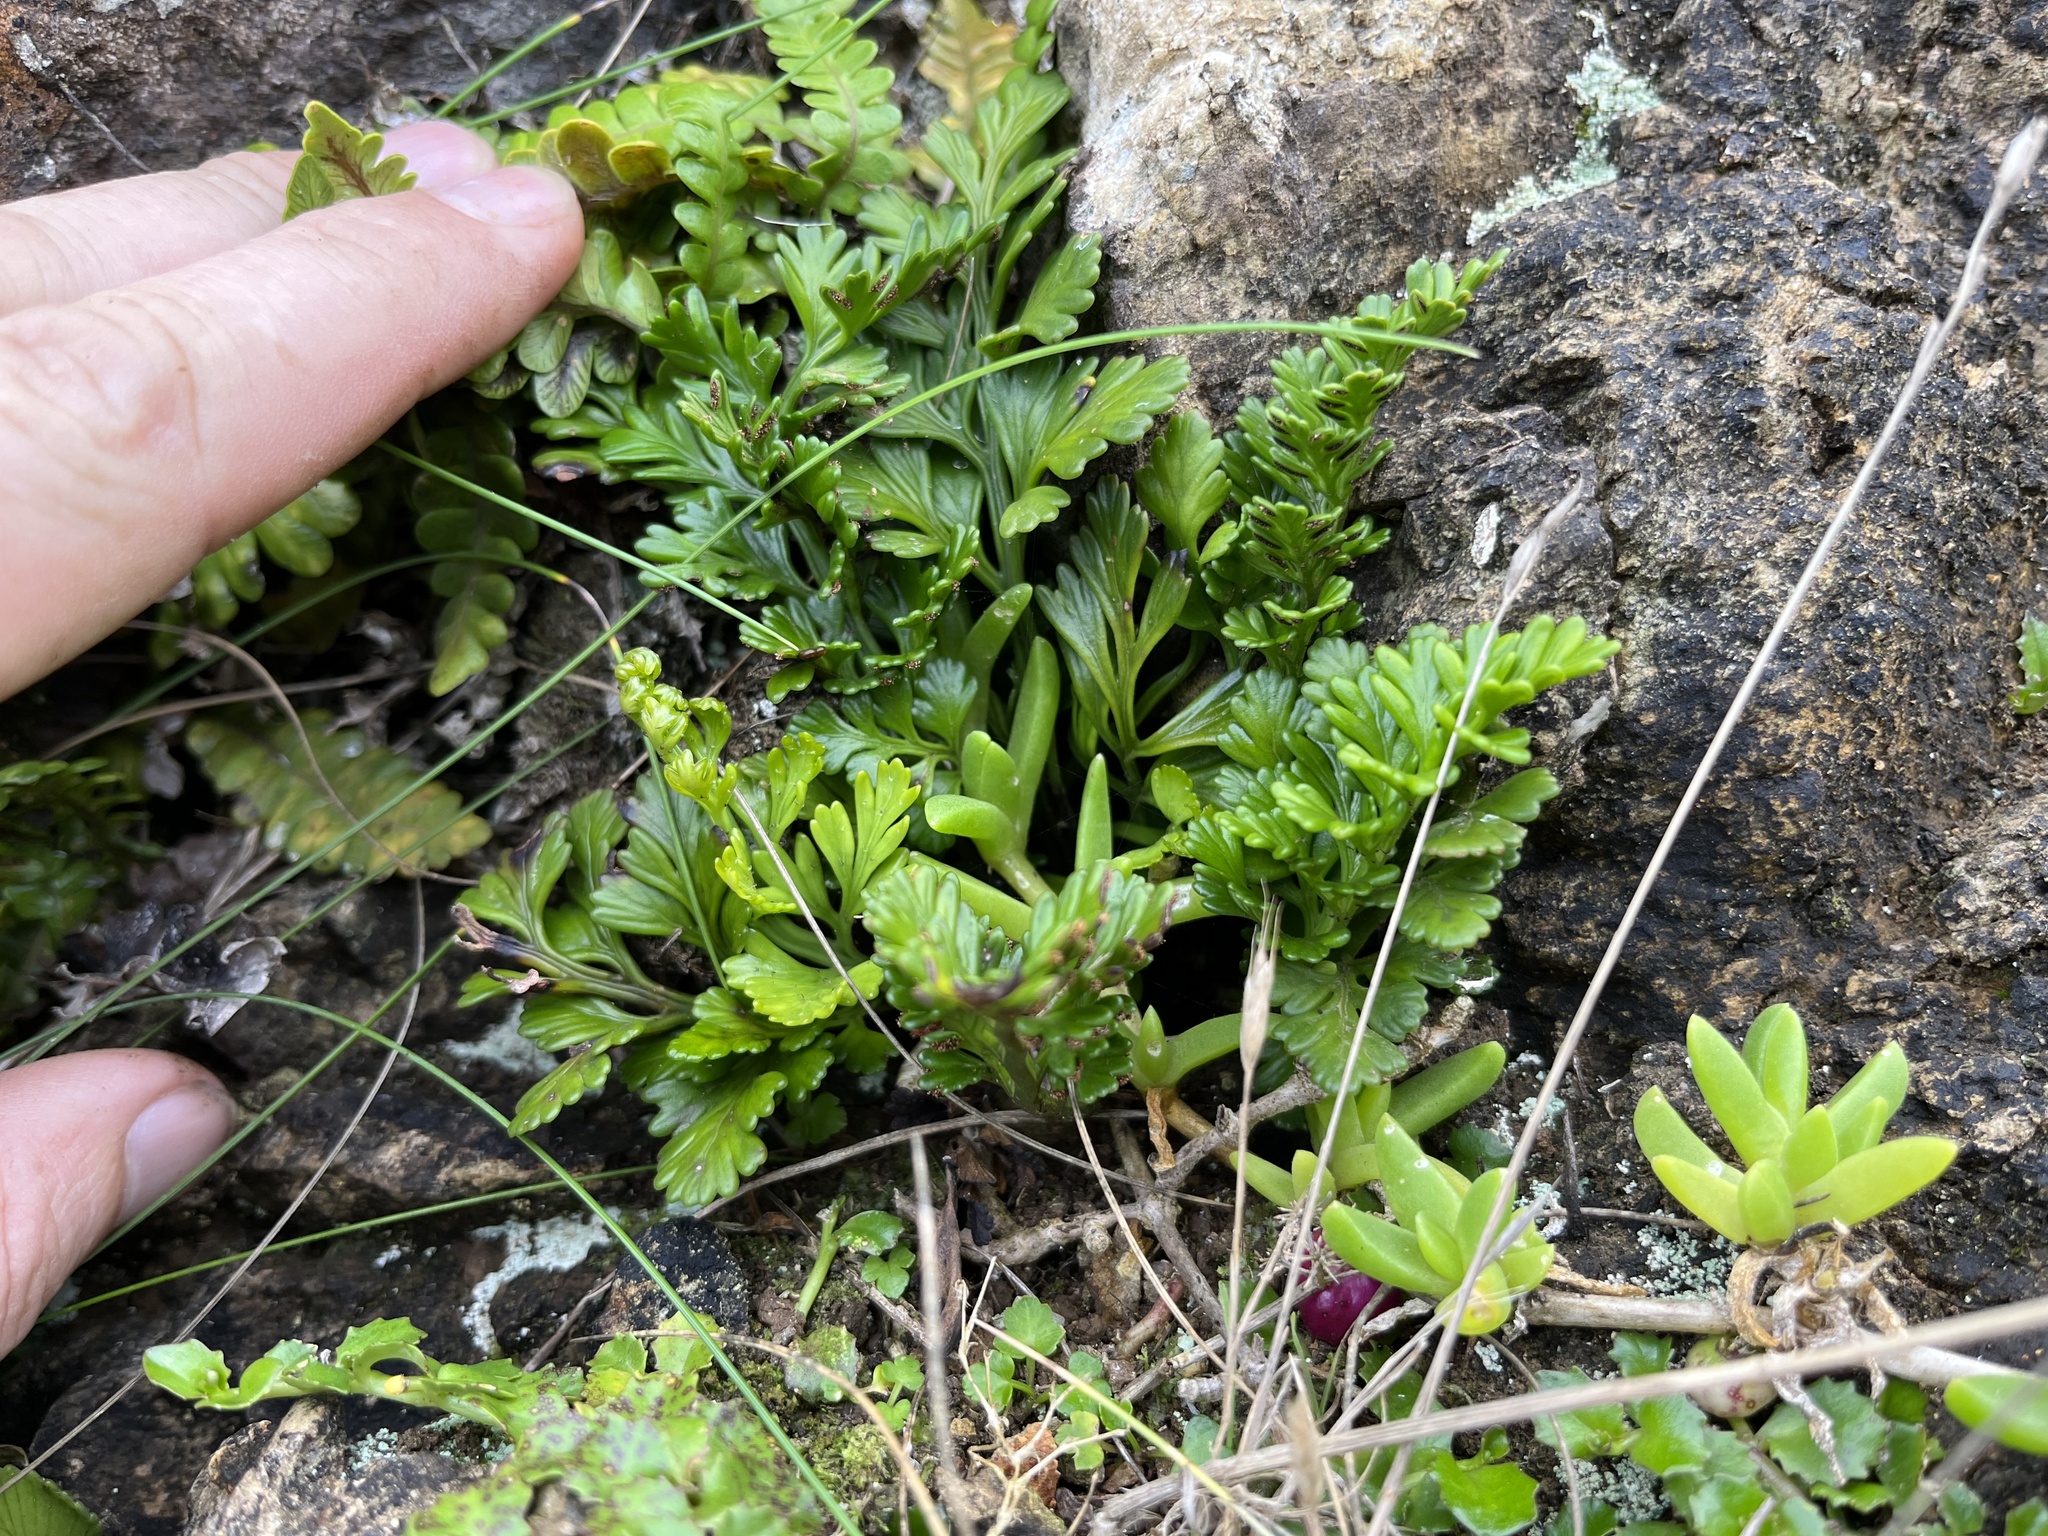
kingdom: Plantae
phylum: Tracheophyta
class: Polypodiopsida
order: Polypodiales
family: Aspleniaceae
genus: Asplenium
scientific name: Asplenium chathamense
